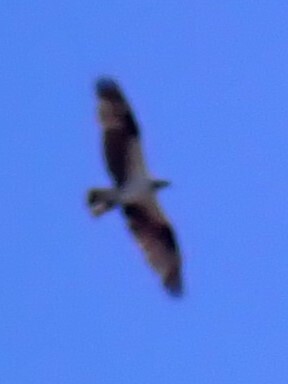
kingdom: Animalia
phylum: Chordata
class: Aves
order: Accipitriformes
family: Pandionidae
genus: Pandion
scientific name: Pandion haliaetus
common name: Osprey
